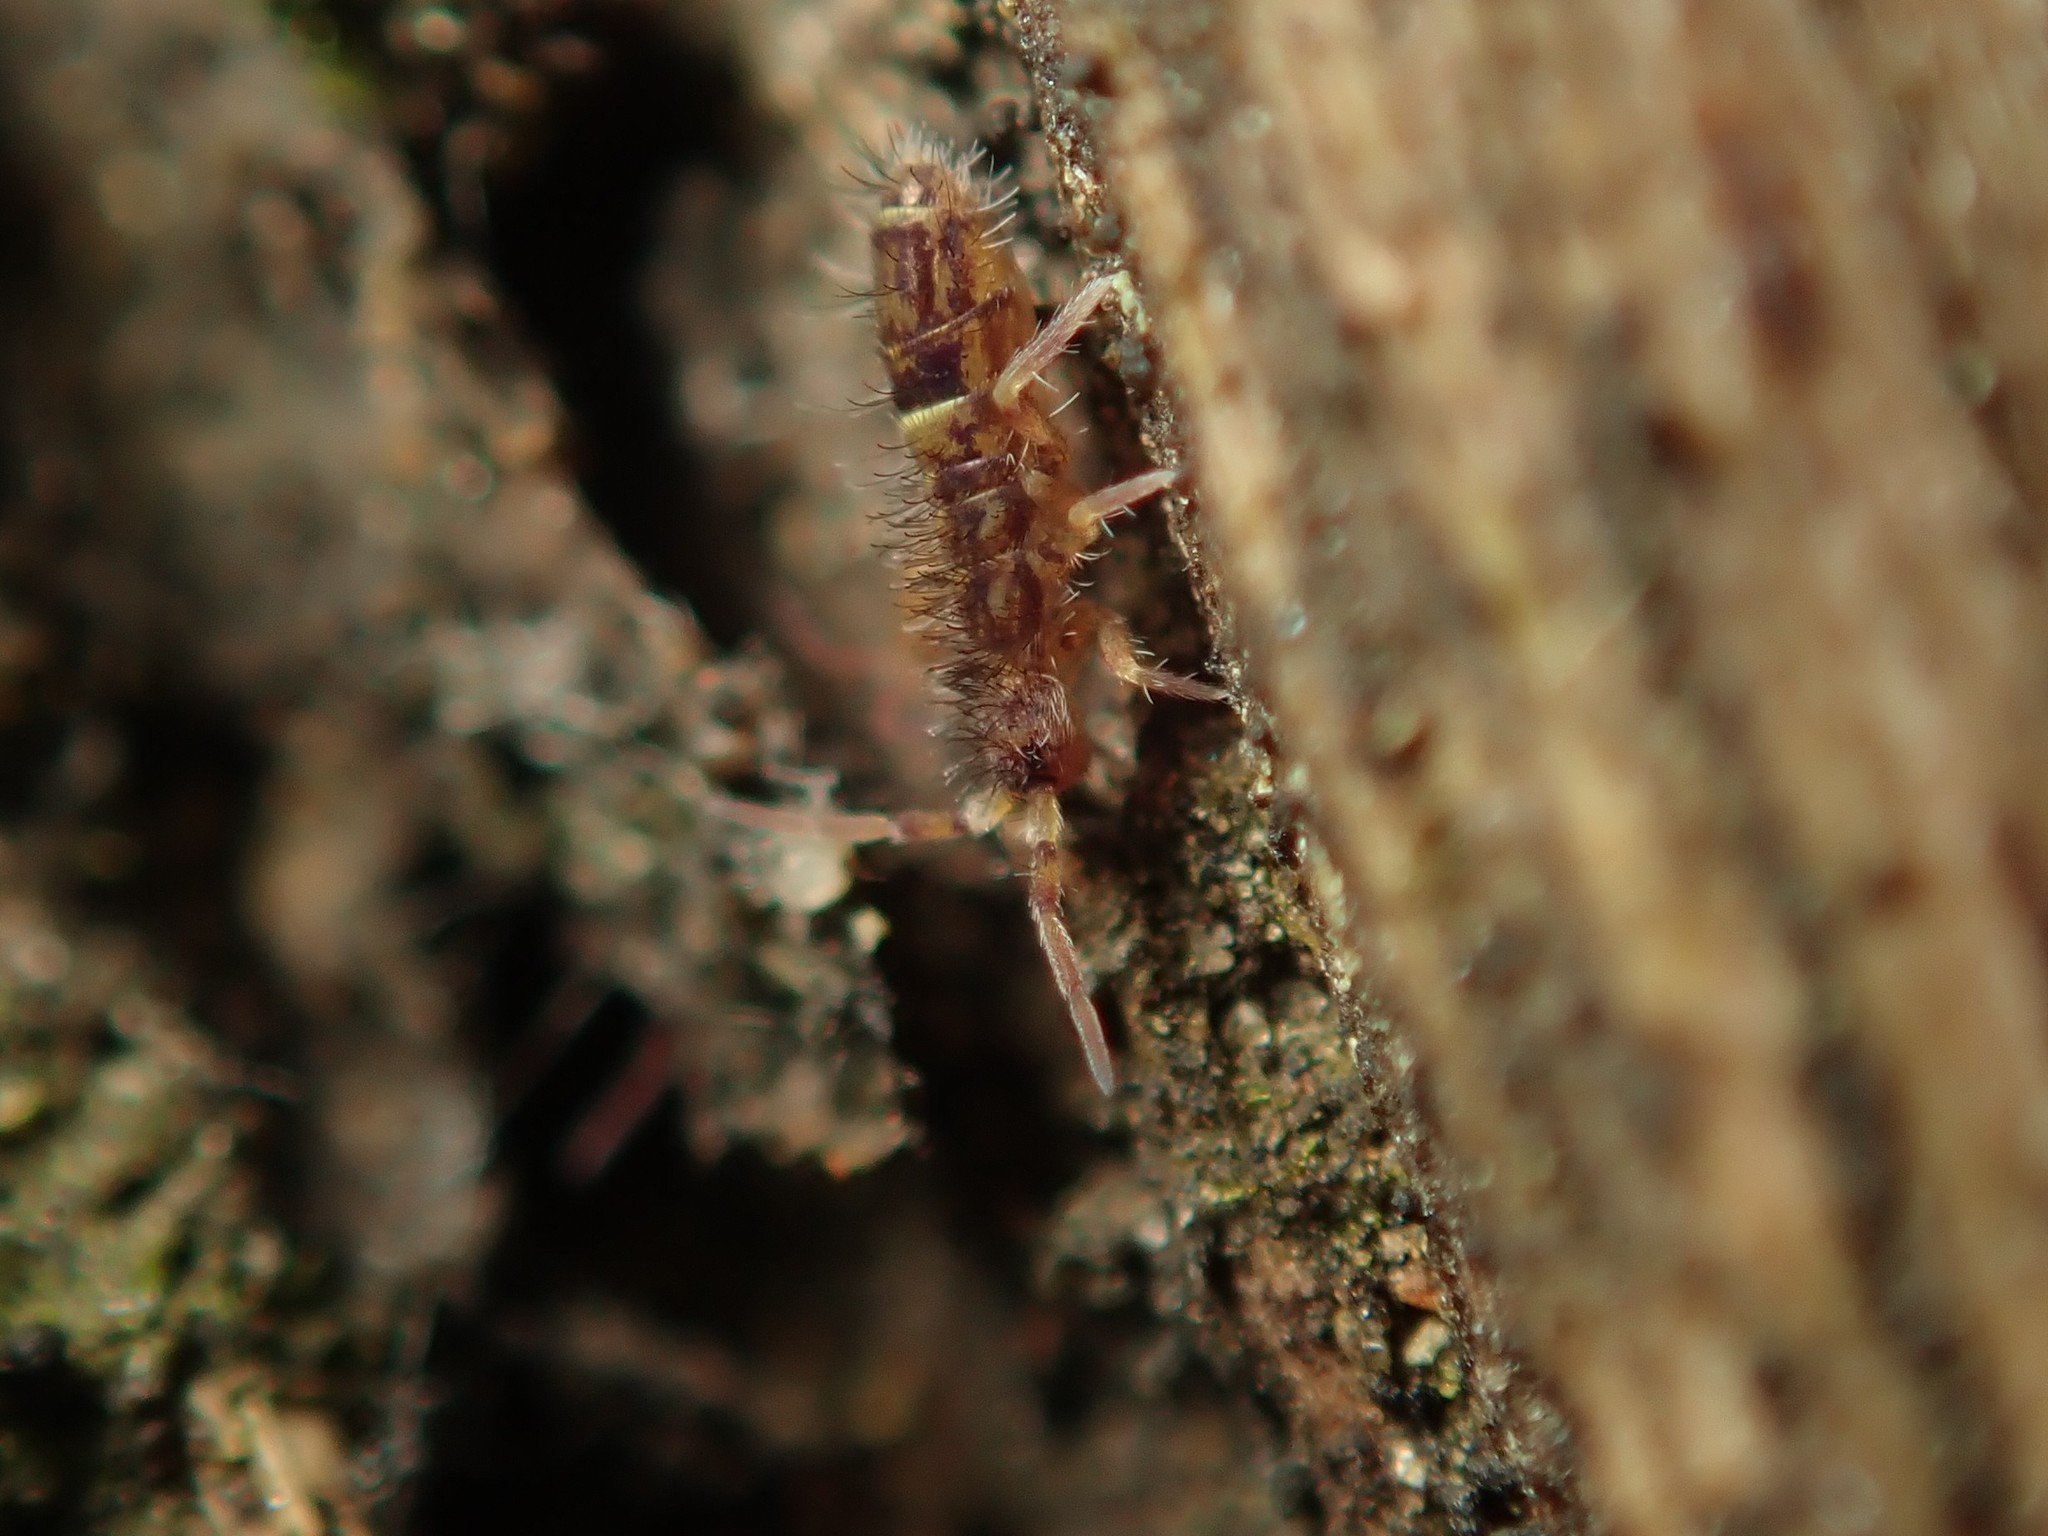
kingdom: Animalia
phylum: Arthropoda
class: Collembola
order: Entomobryomorpha
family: Orchesellidae
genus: Orchesella
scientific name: Orchesella cincta
